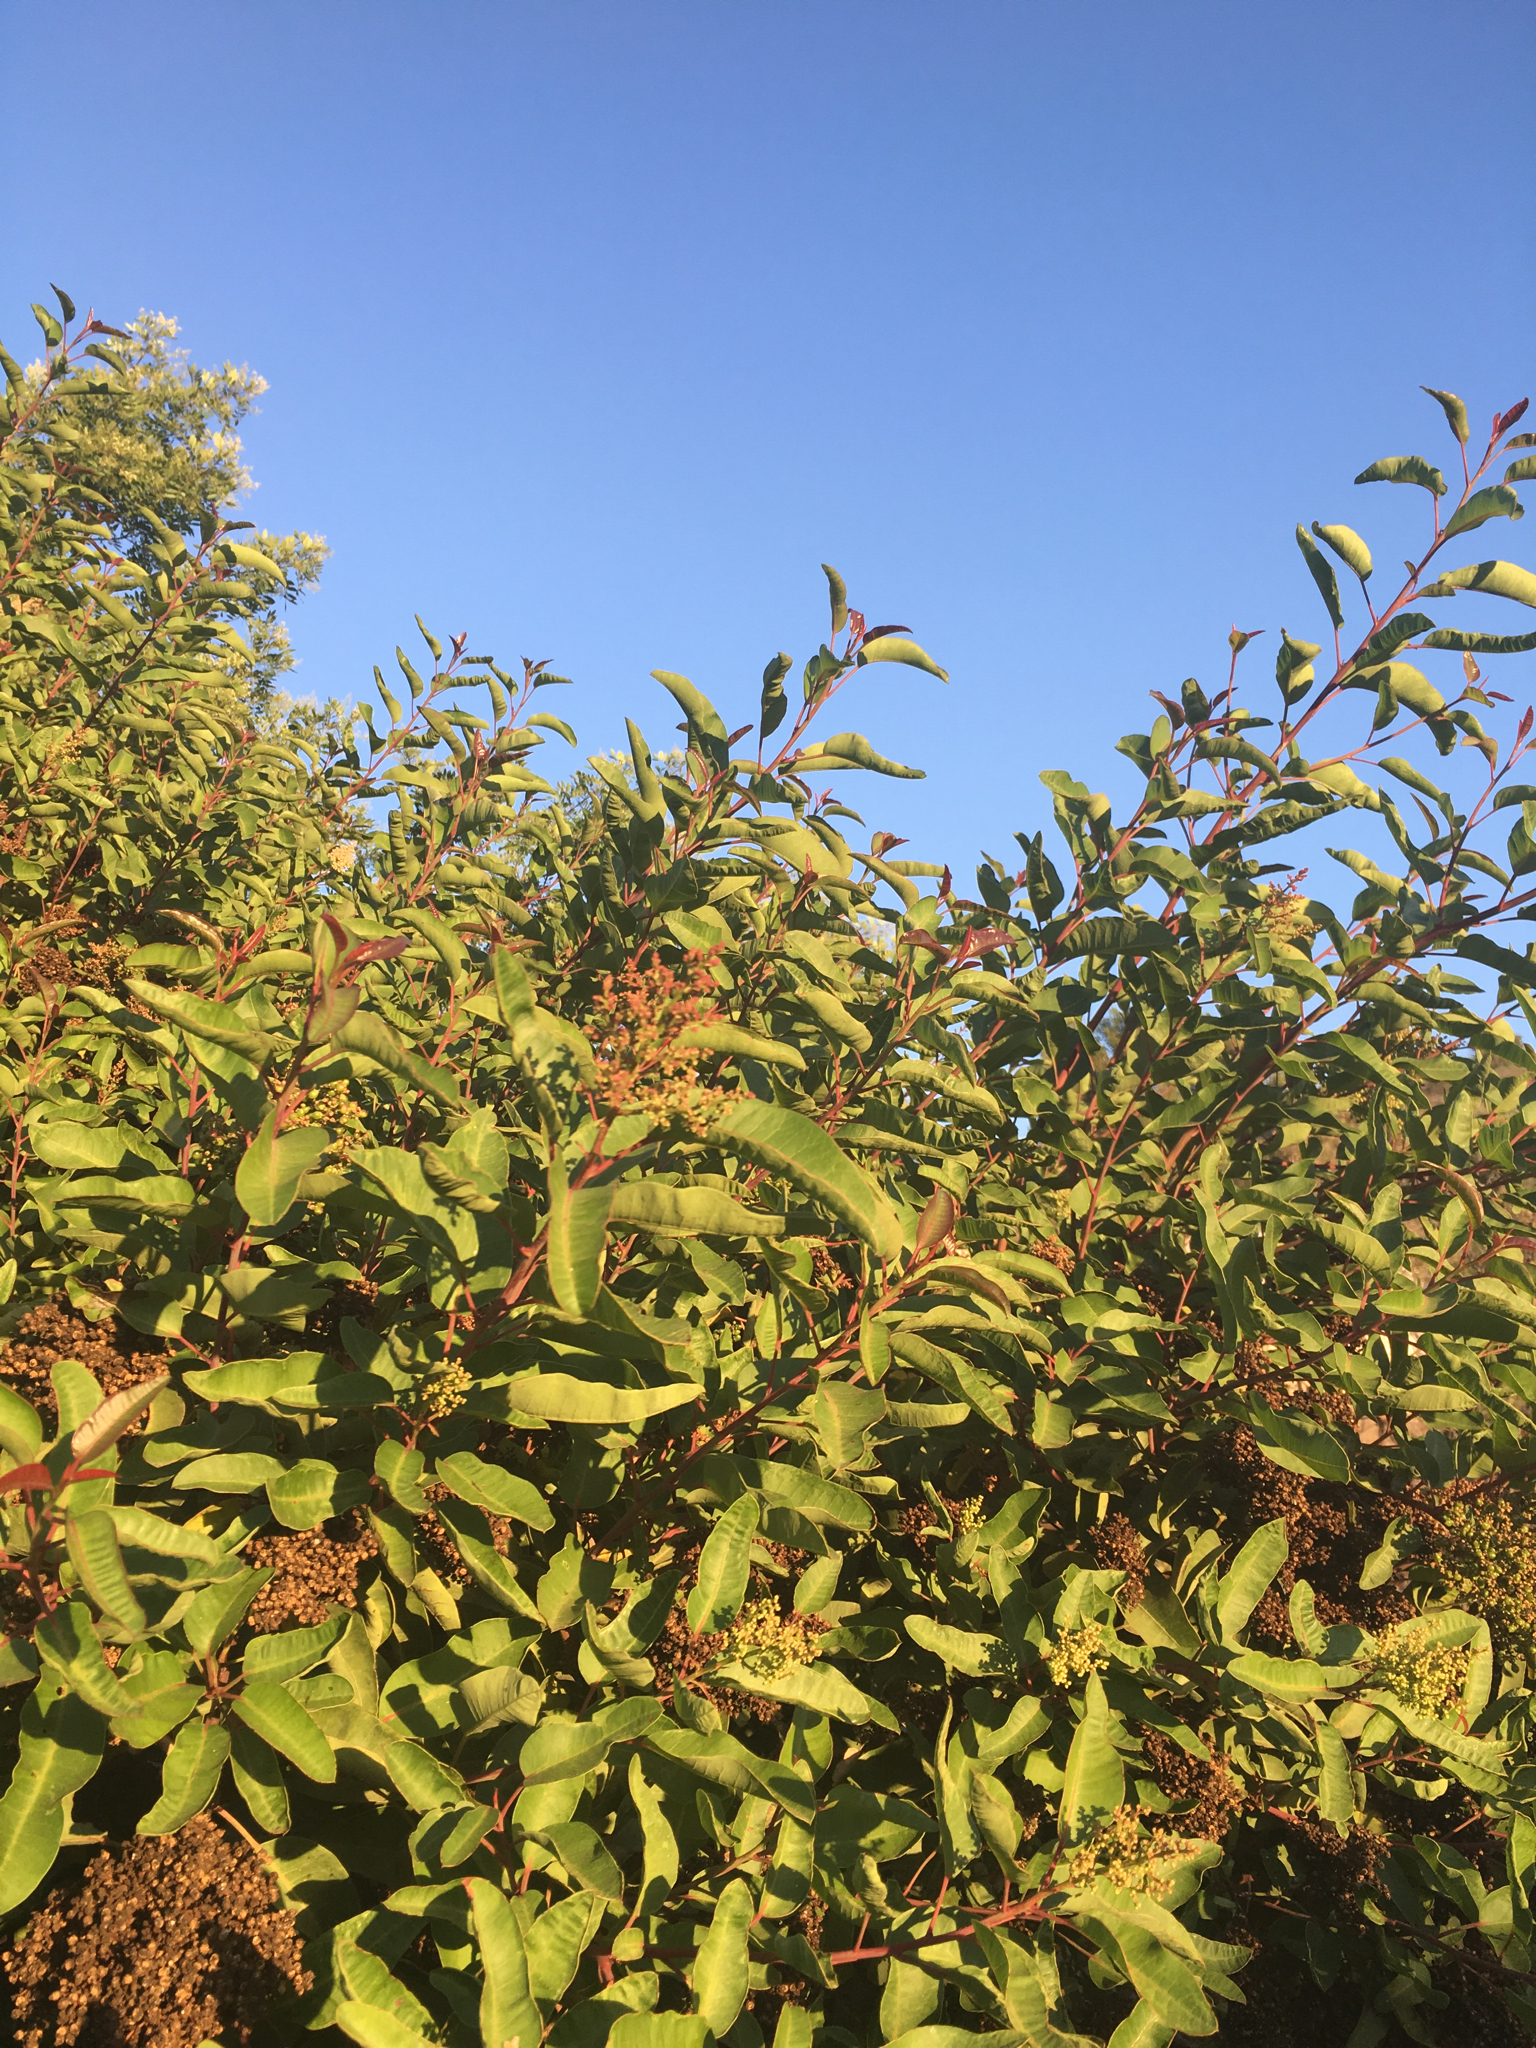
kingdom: Plantae
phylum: Tracheophyta
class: Magnoliopsida
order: Sapindales
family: Anacardiaceae
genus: Malosma
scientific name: Malosma laurina
